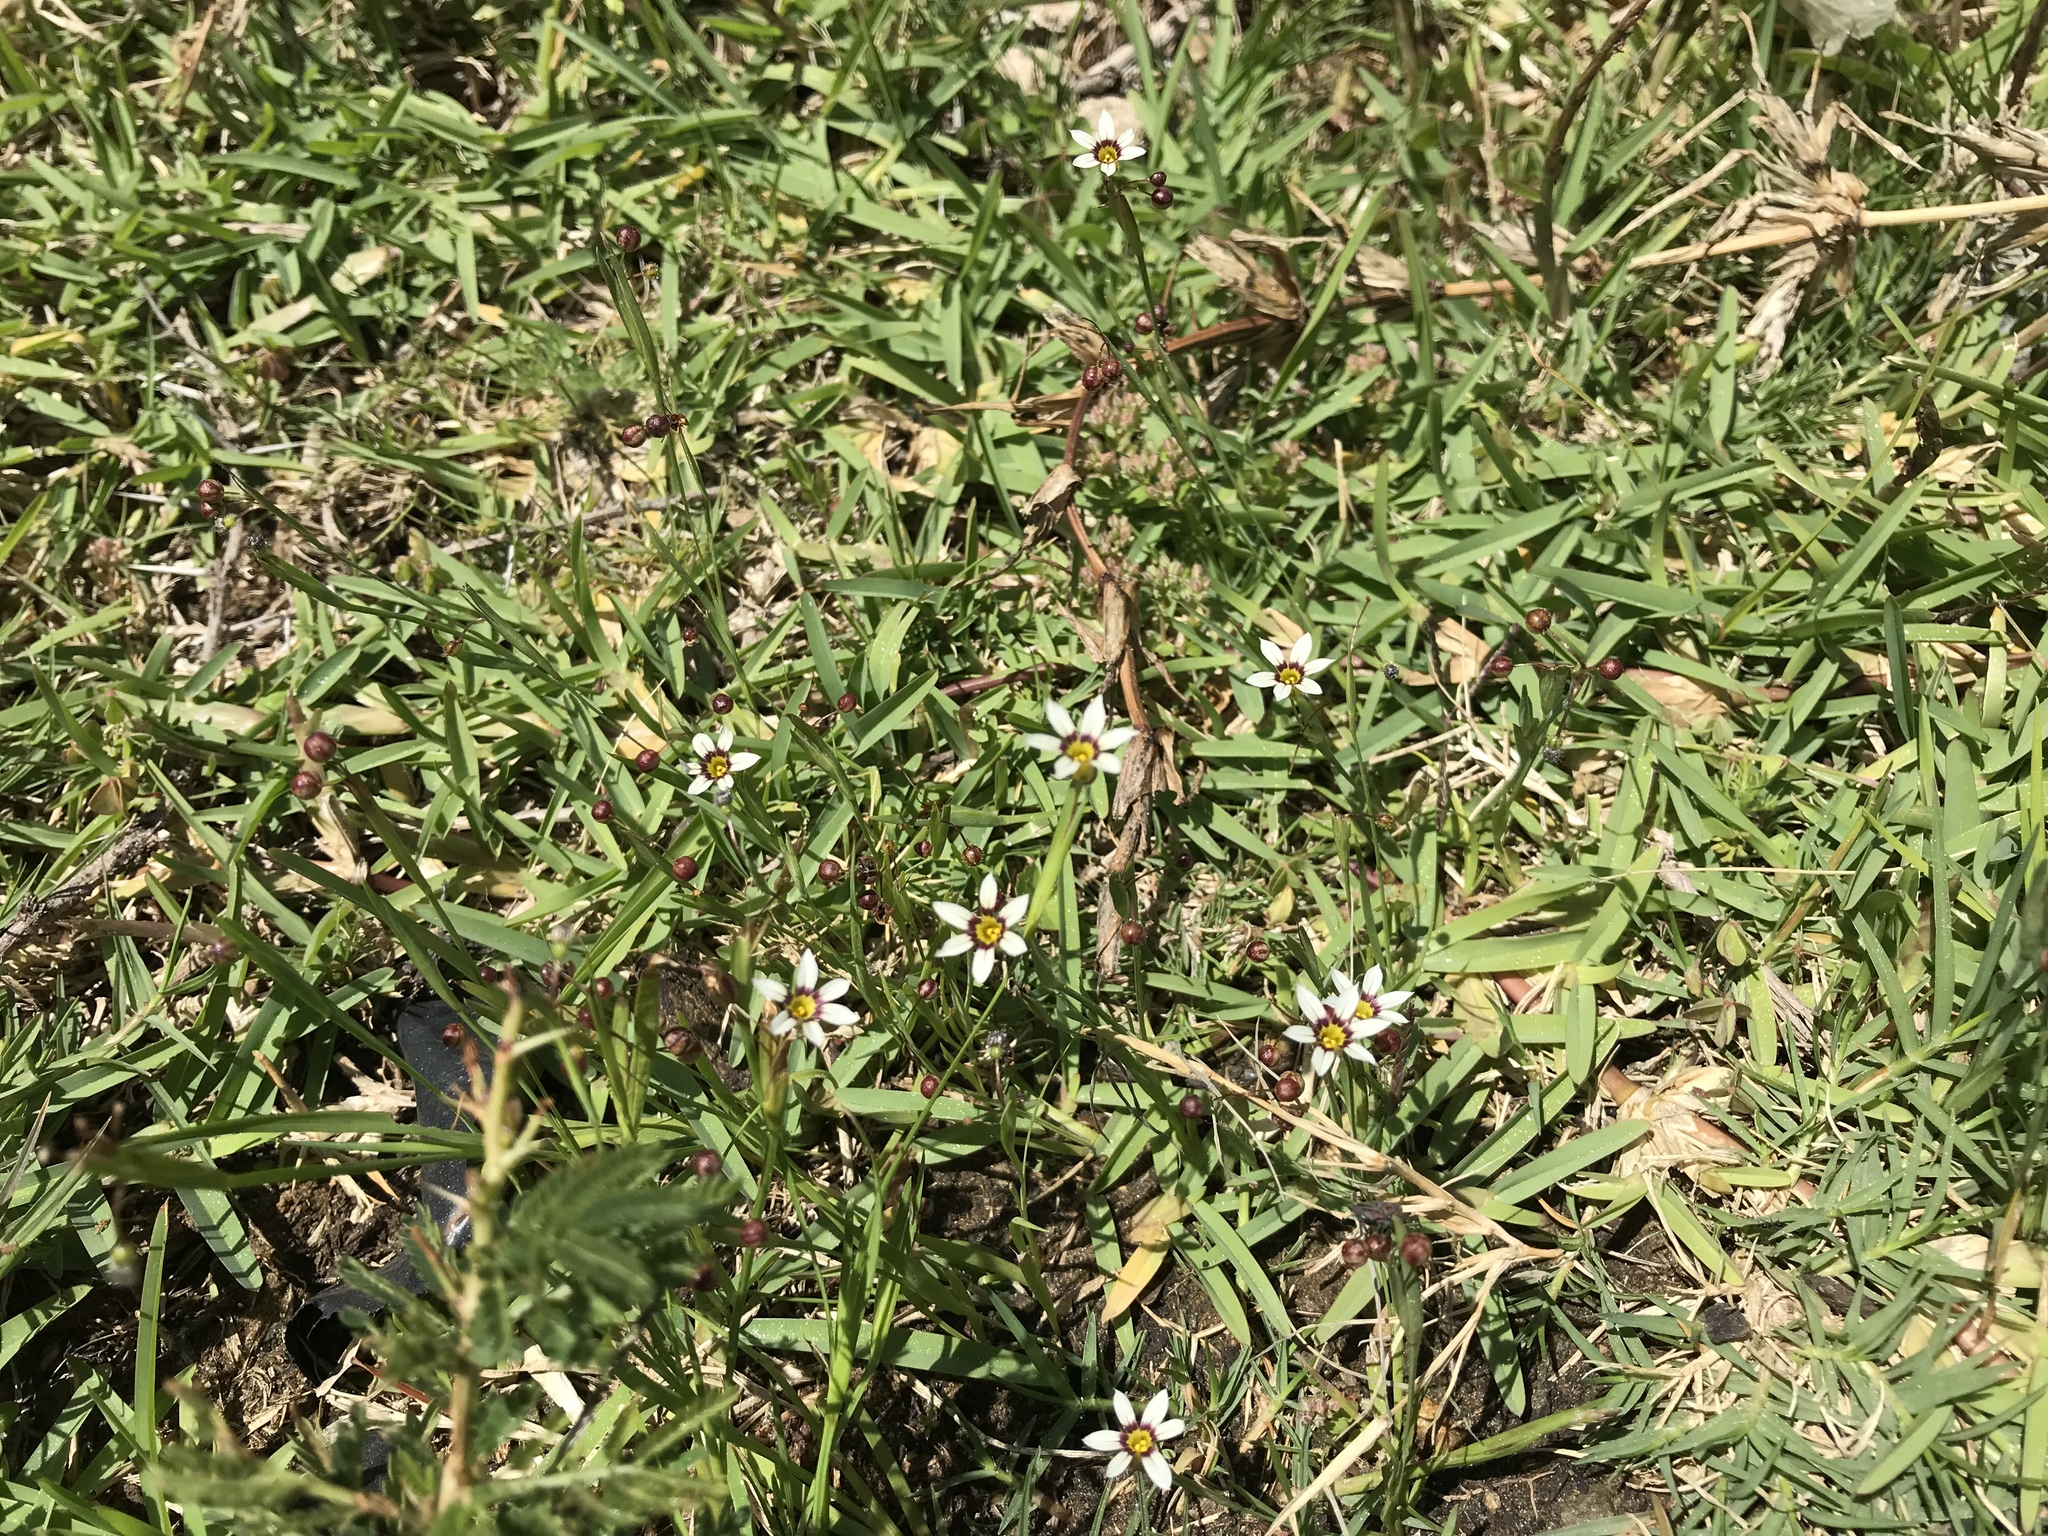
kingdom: Plantae
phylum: Tracheophyta
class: Liliopsida
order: Asparagales
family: Iridaceae
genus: Sisyrinchium
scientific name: Sisyrinchium micranthum
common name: Bermuda pigroot
